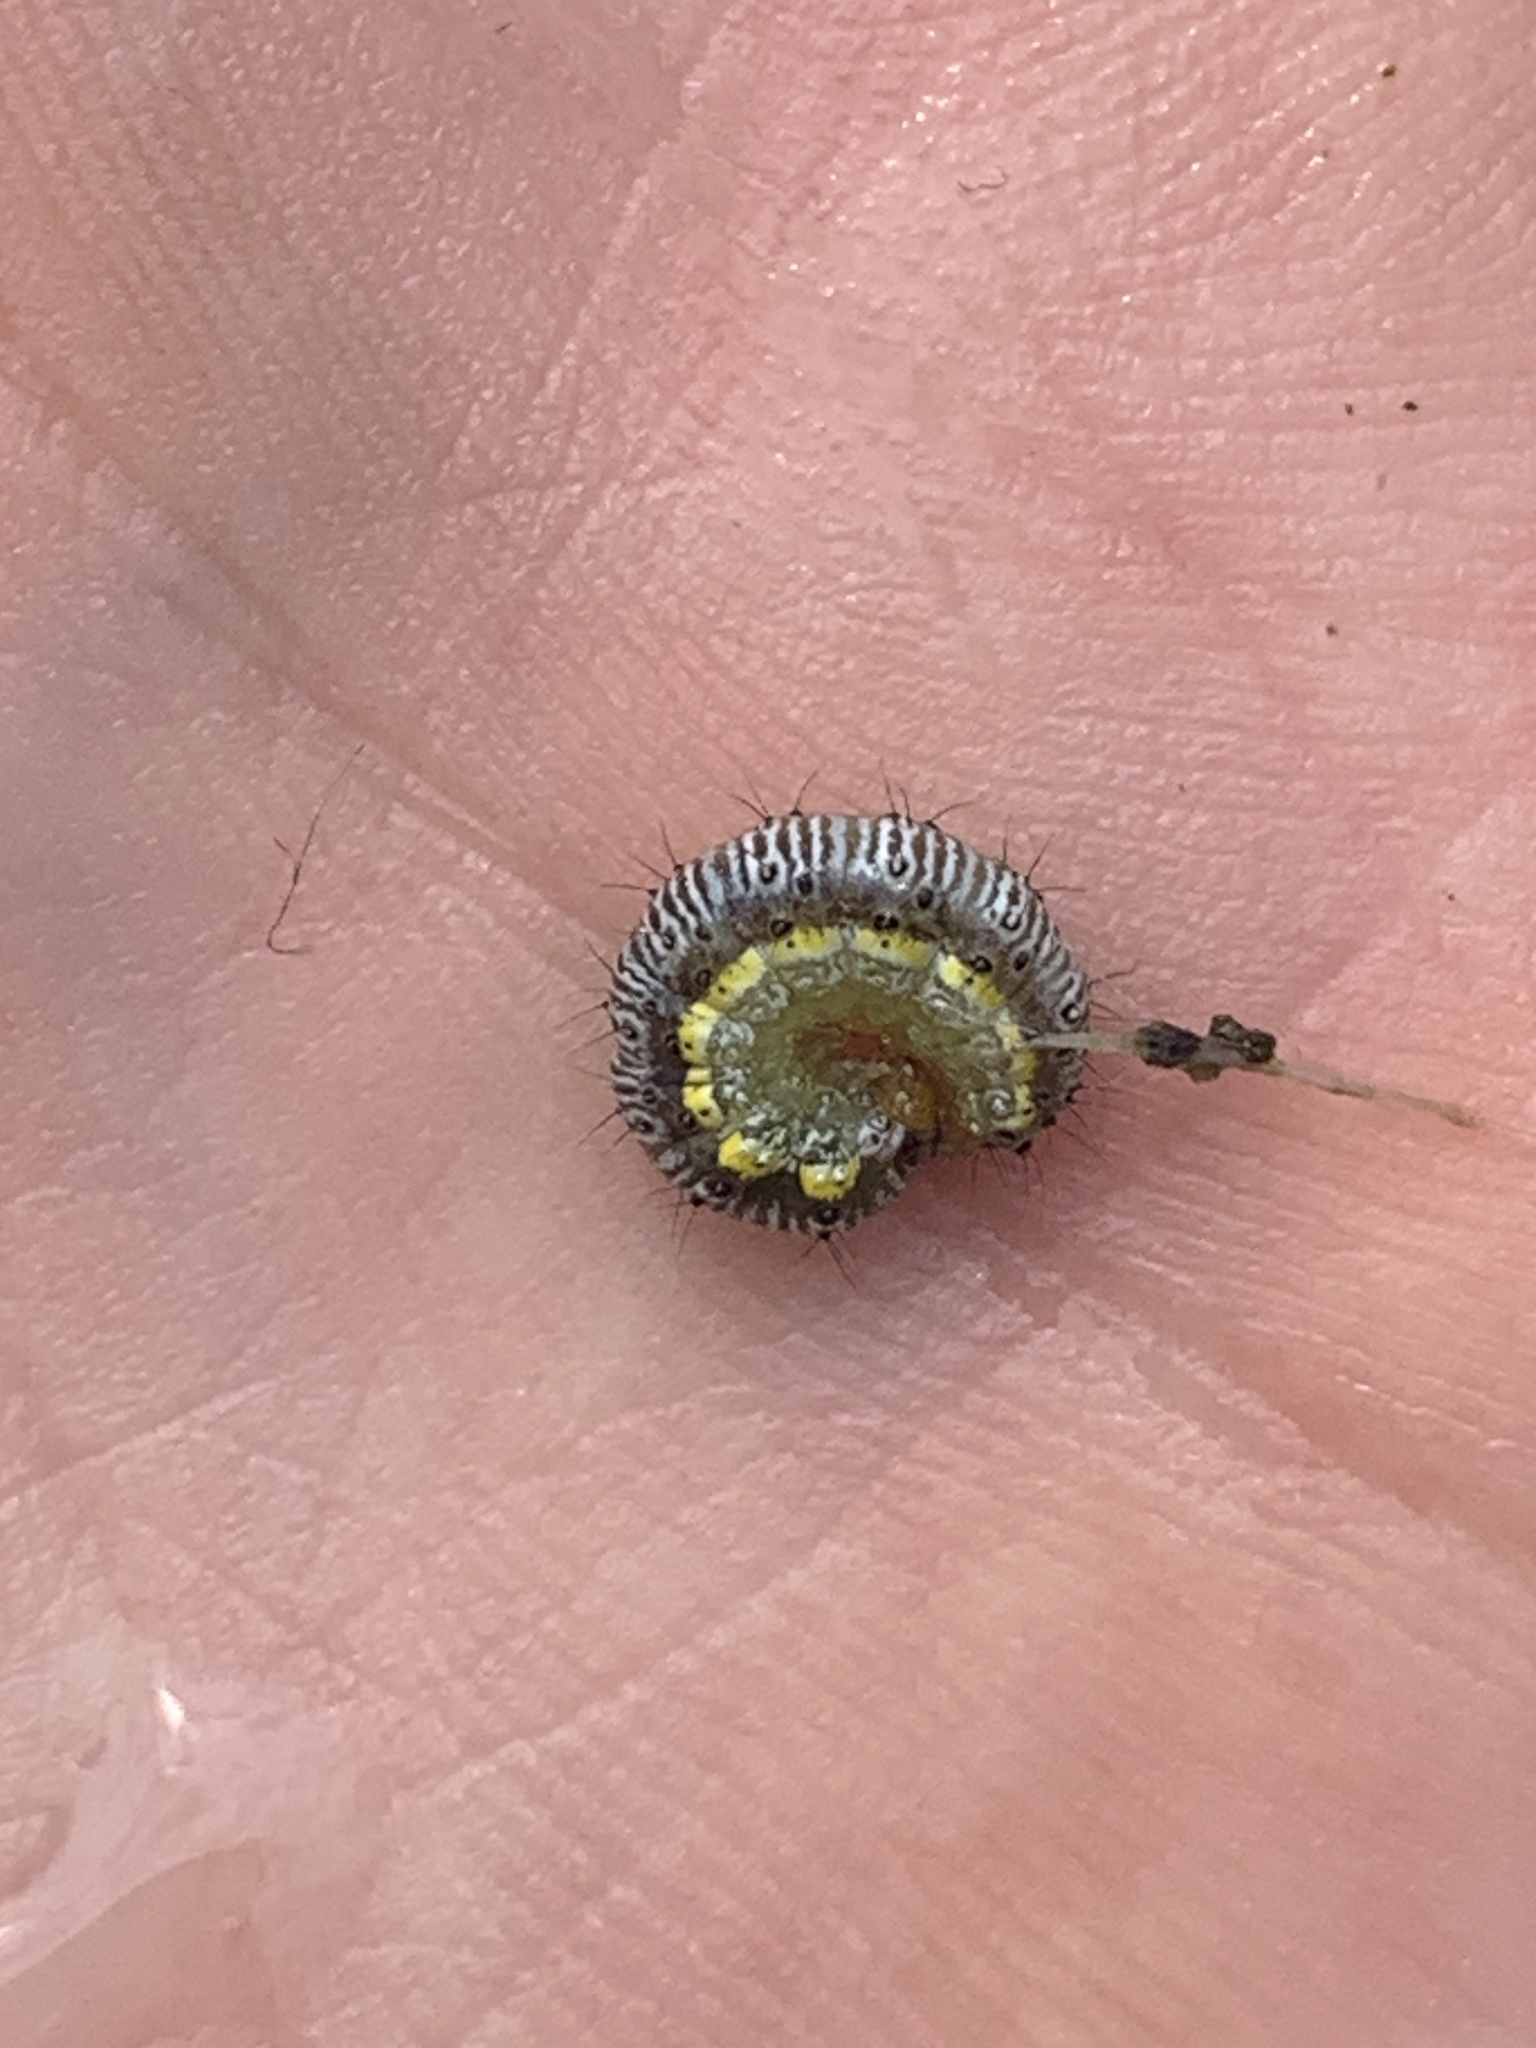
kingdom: Animalia
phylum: Arthropoda
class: Insecta
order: Lepidoptera
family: Crambidae
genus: Evergestis
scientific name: Evergestis rimosalis
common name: Cross-striped cabbageworm moth
